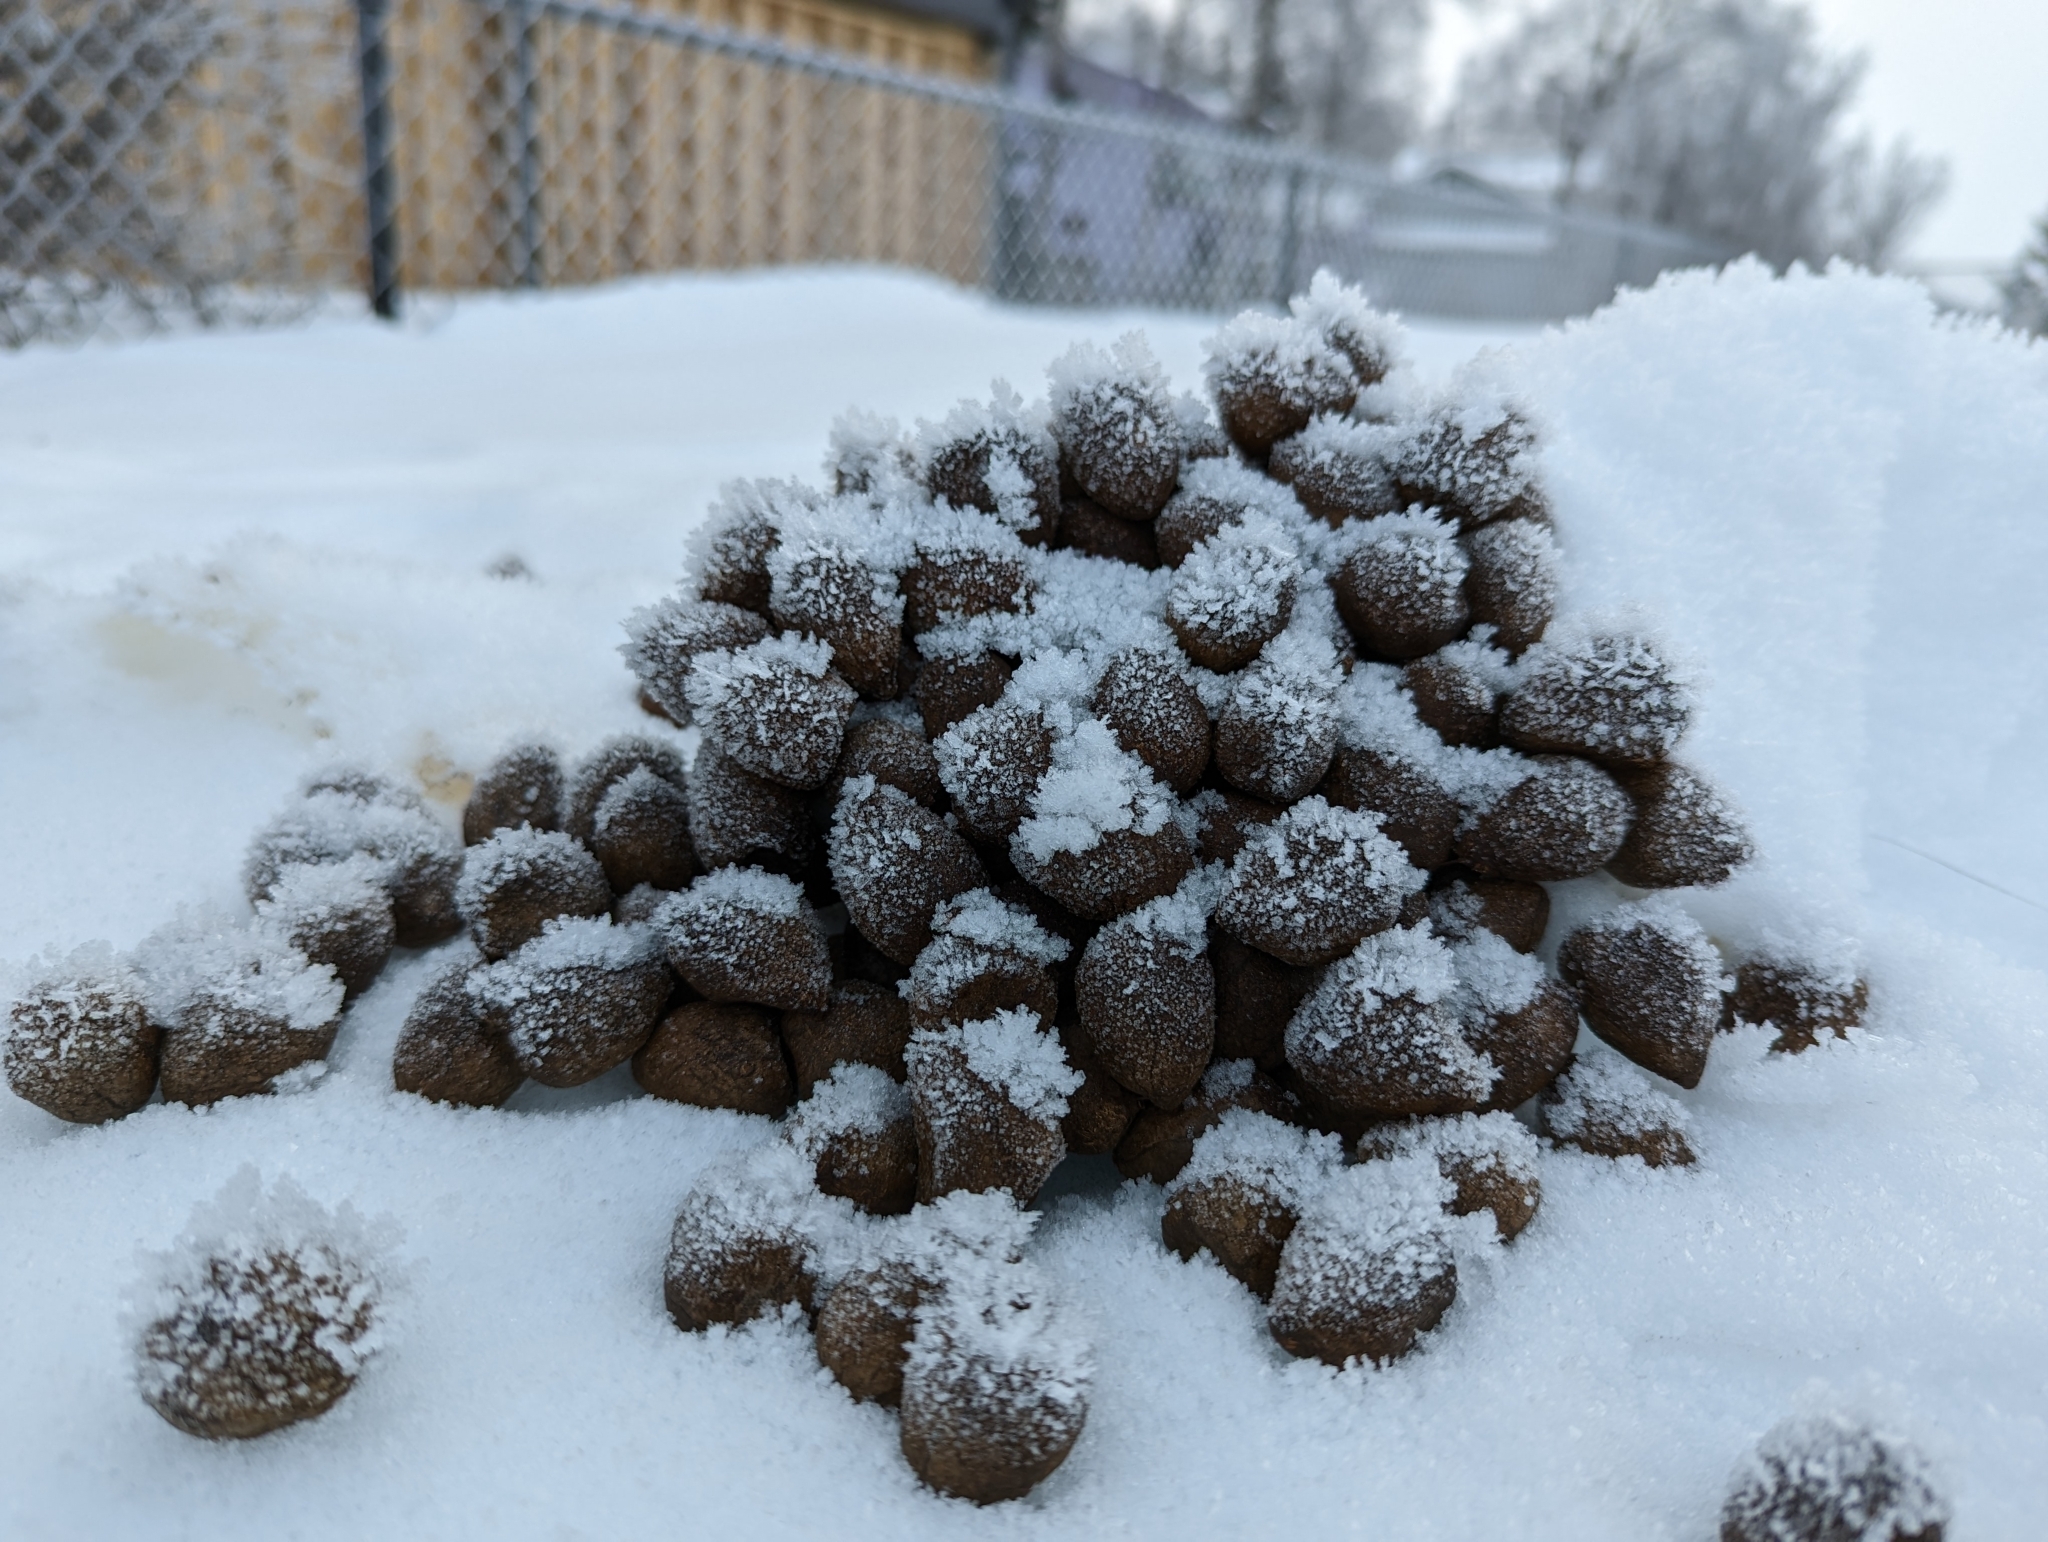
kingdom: Animalia
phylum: Chordata
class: Mammalia
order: Artiodactyla
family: Cervidae
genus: Alces
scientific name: Alces alces
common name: Moose
